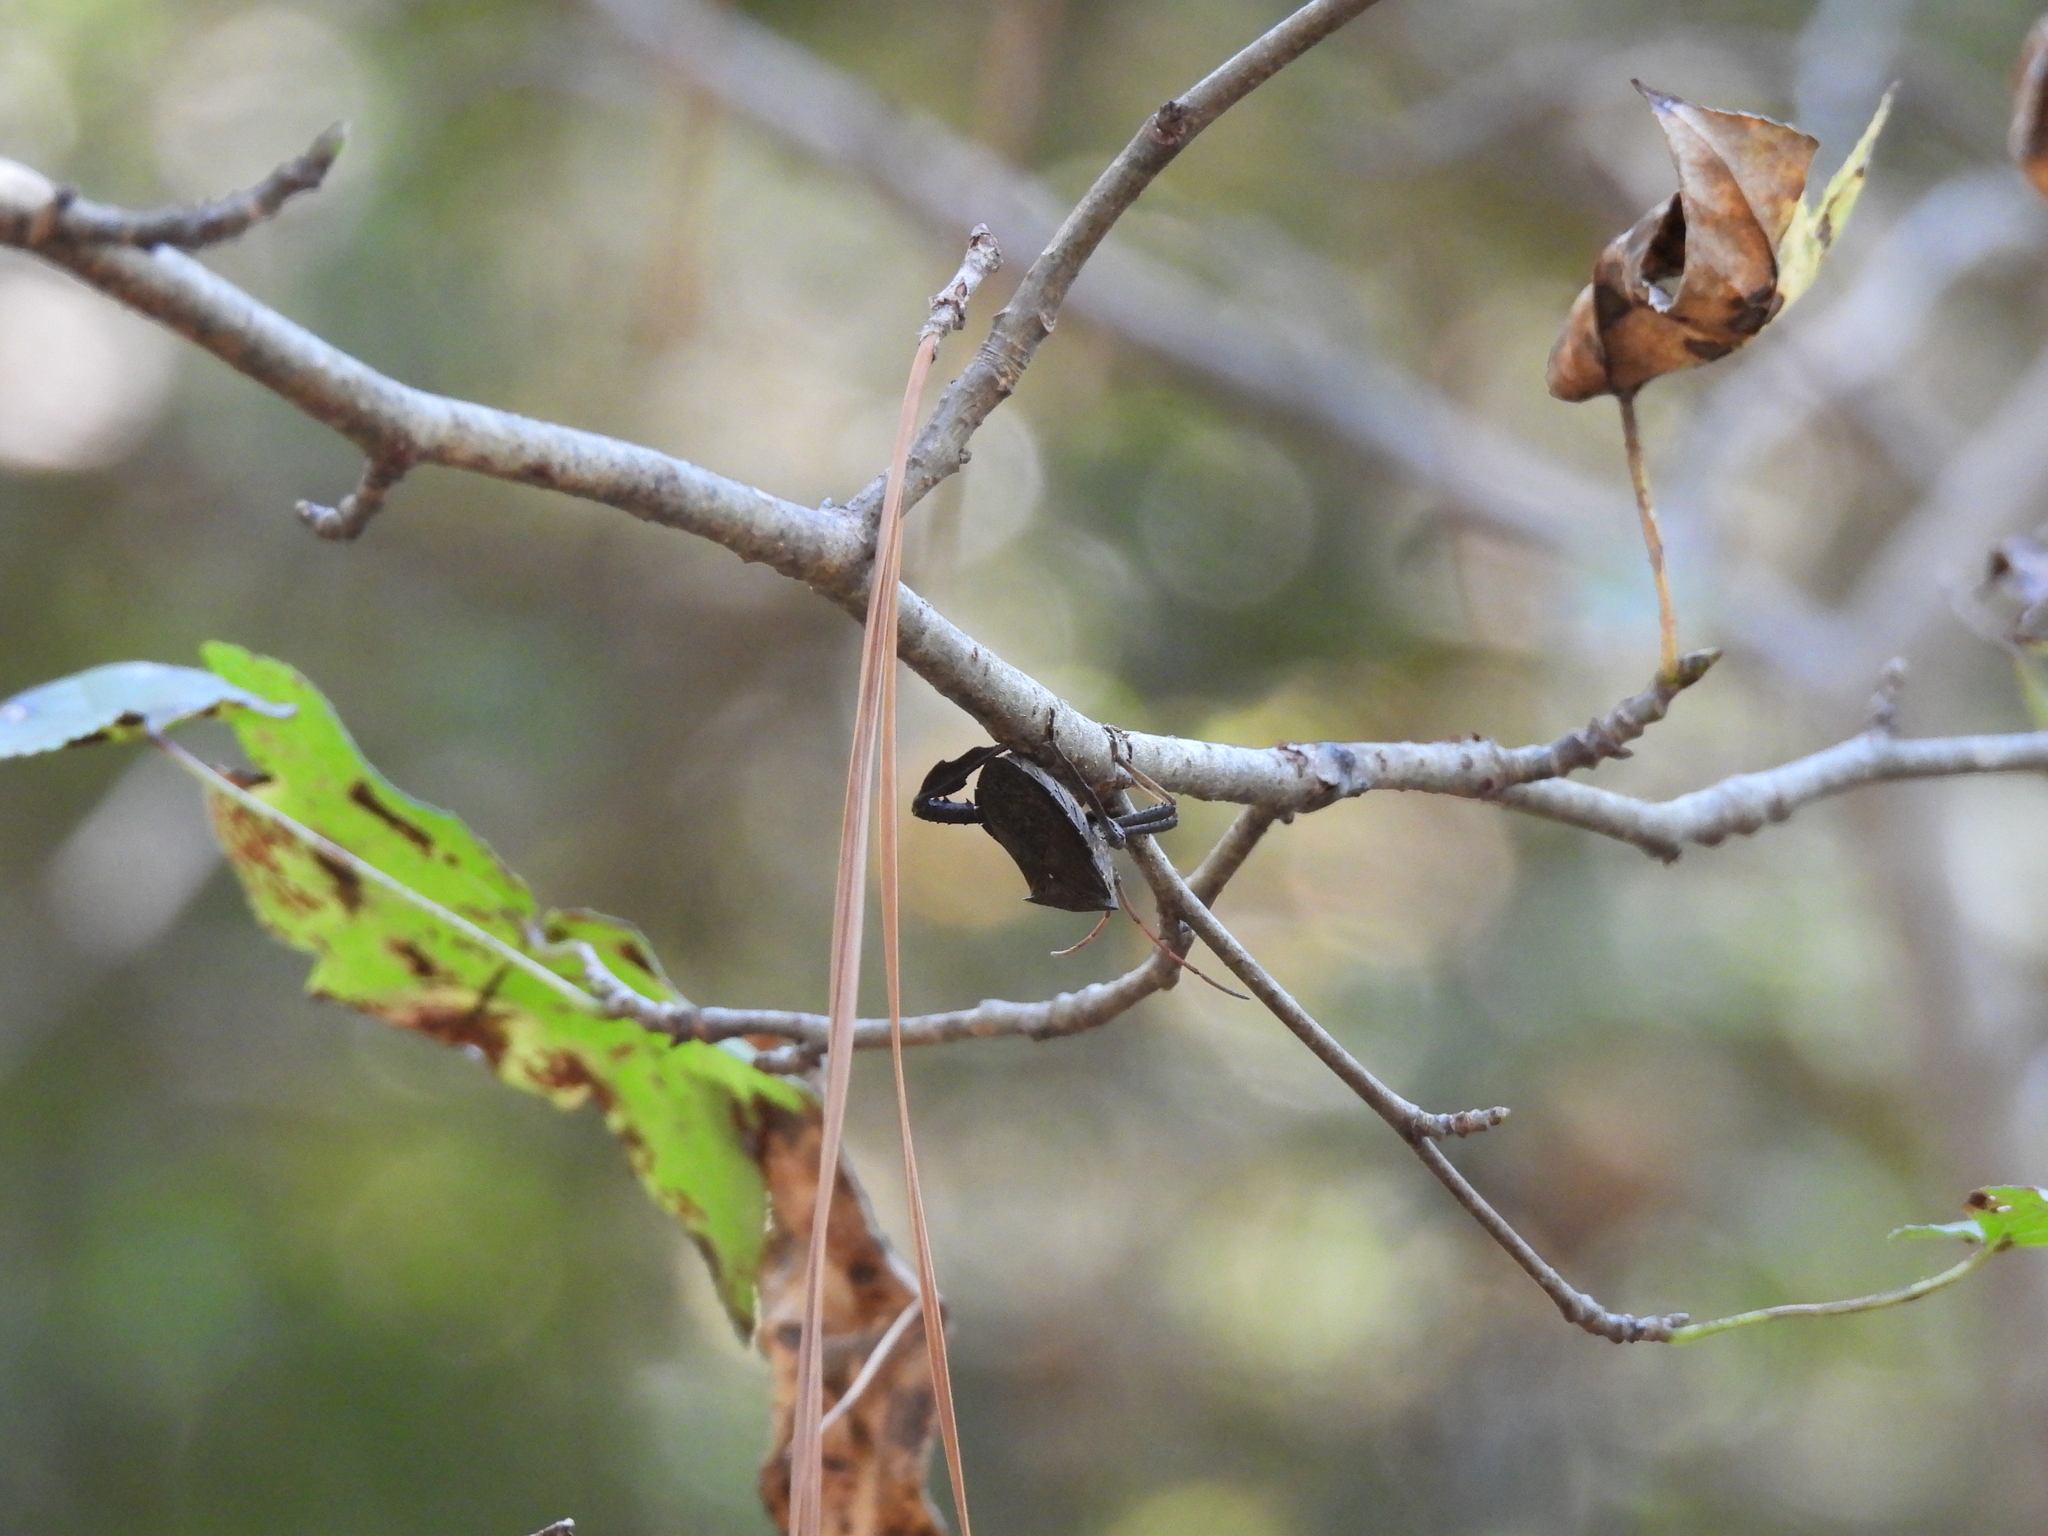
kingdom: Animalia
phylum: Arthropoda
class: Insecta
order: Hemiptera
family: Coreidae
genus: Acanthocephala
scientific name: Acanthocephala femorata
